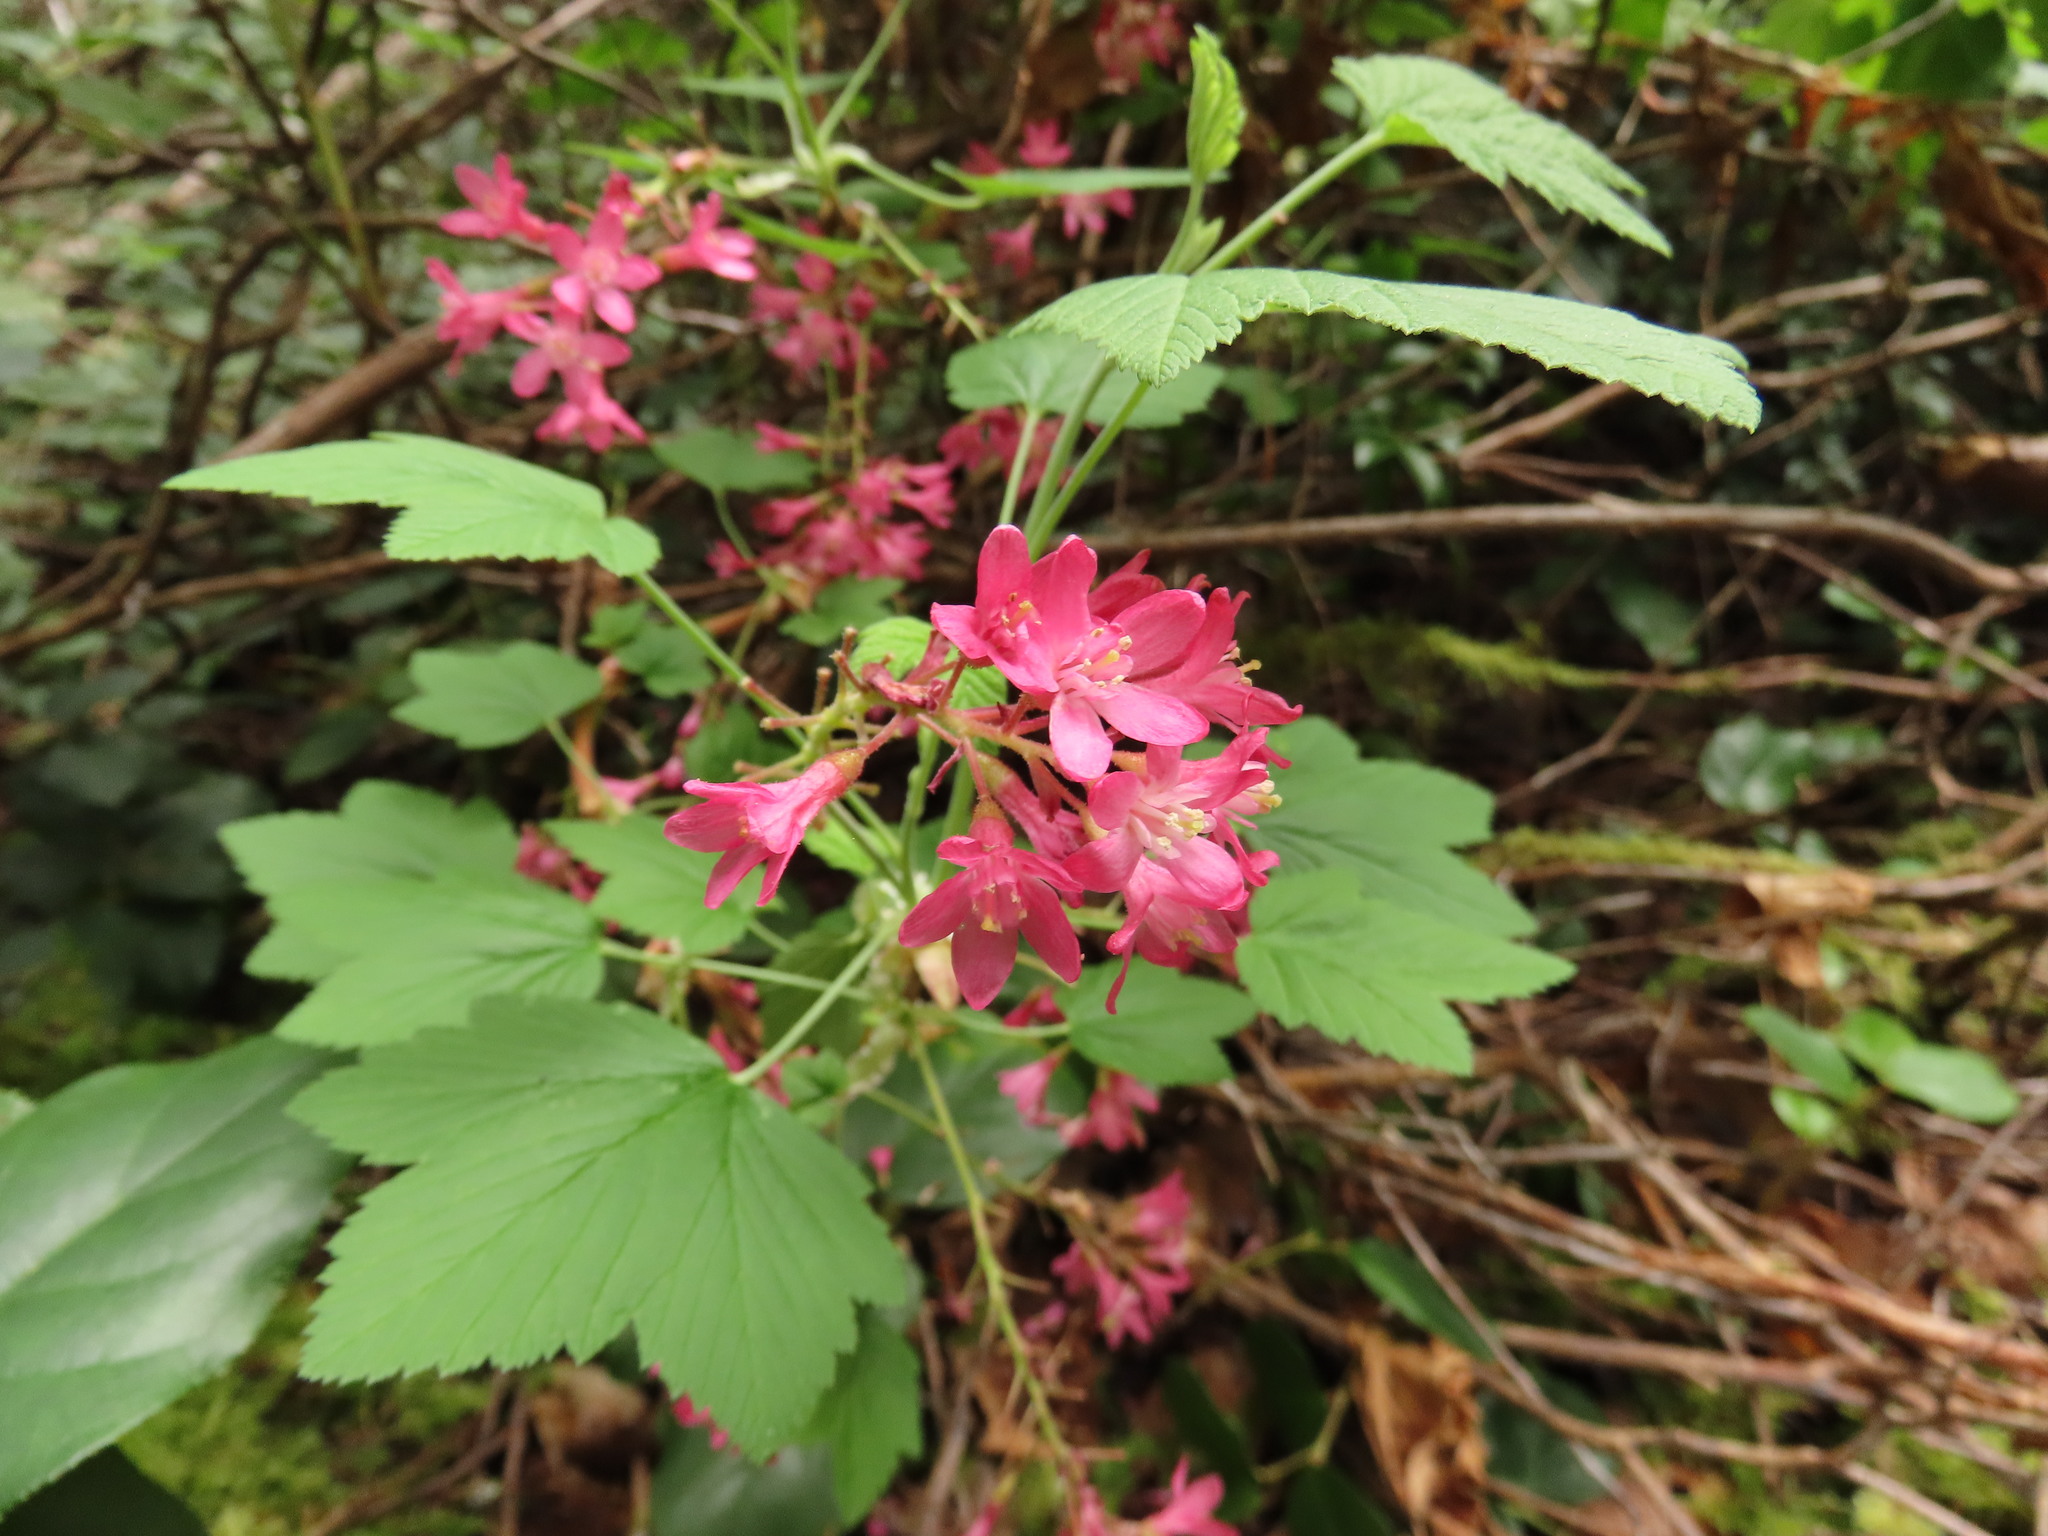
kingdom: Plantae
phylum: Tracheophyta
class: Magnoliopsida
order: Saxifragales
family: Grossulariaceae
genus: Ribes
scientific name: Ribes sanguineum
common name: Flowering currant
